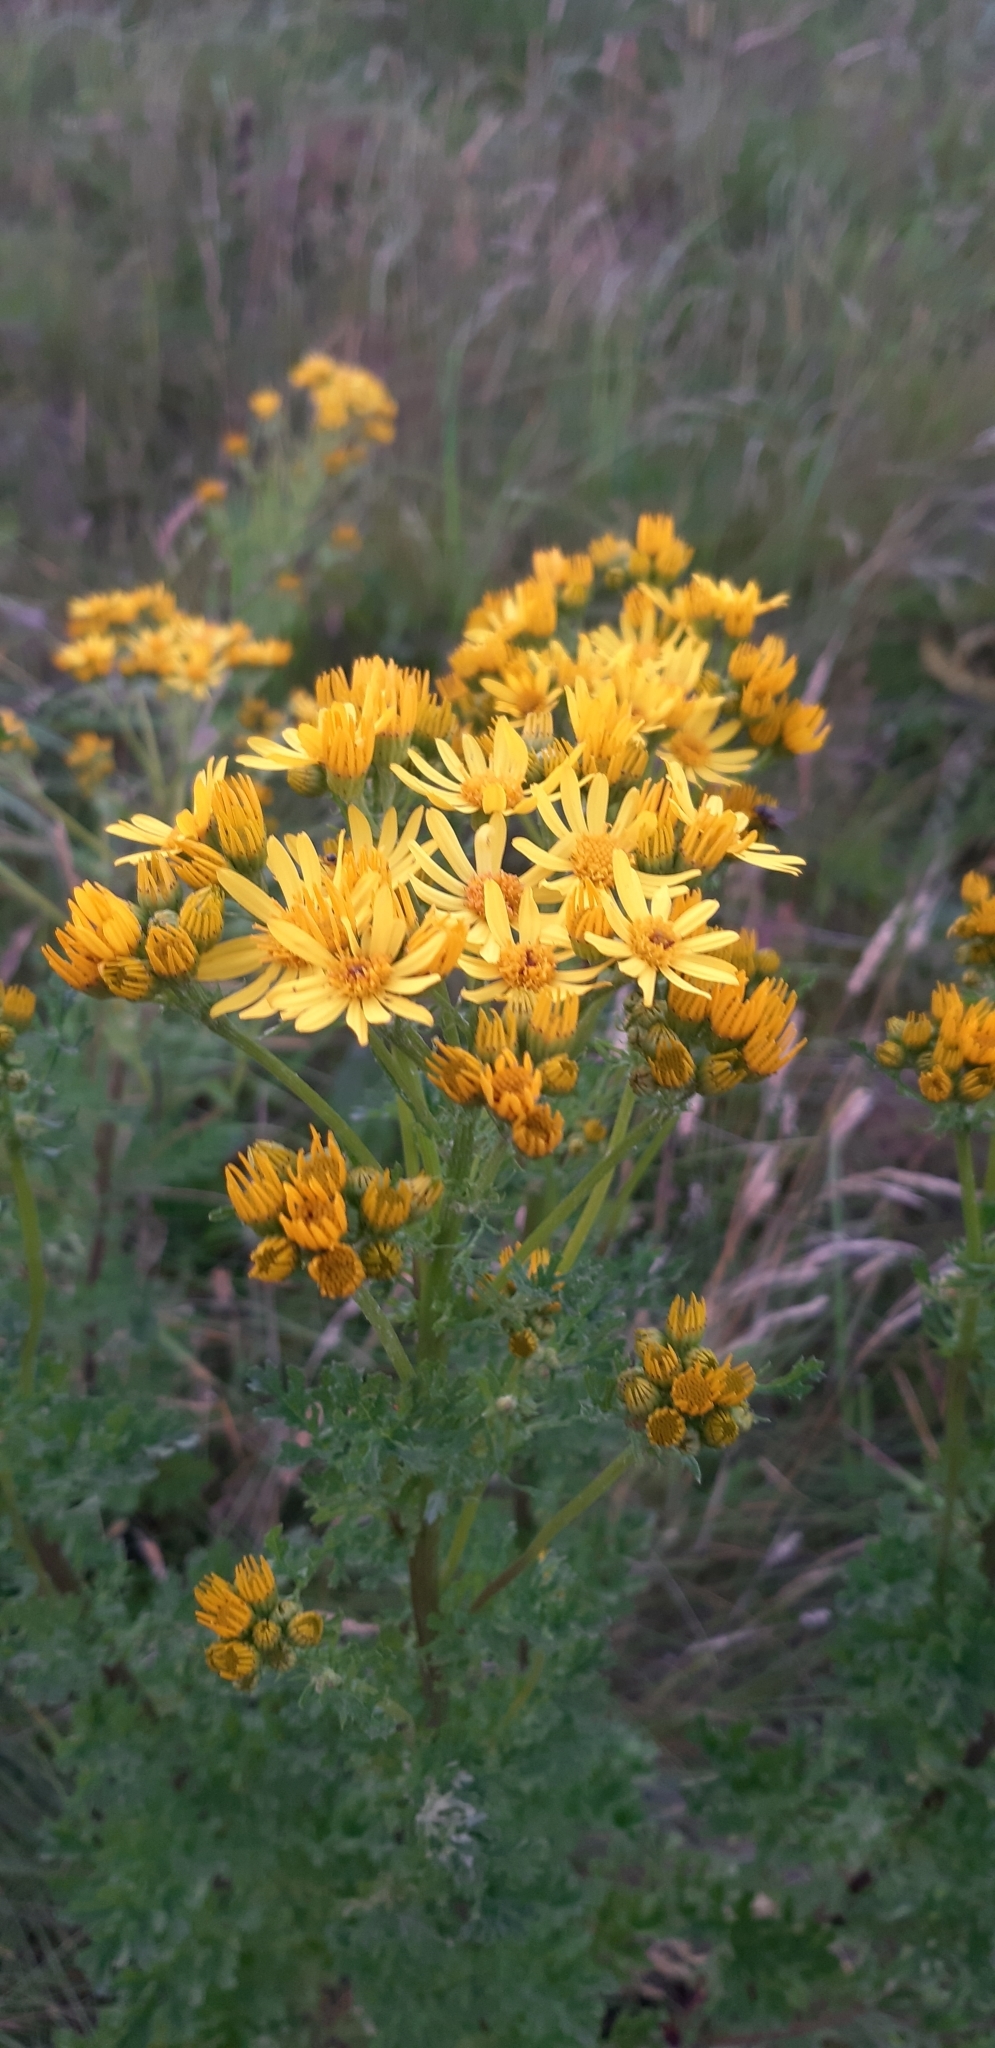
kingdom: Plantae
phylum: Tracheophyta
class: Magnoliopsida
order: Asterales
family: Asteraceae
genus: Jacobaea
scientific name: Jacobaea vulgaris
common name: Stinking willie
